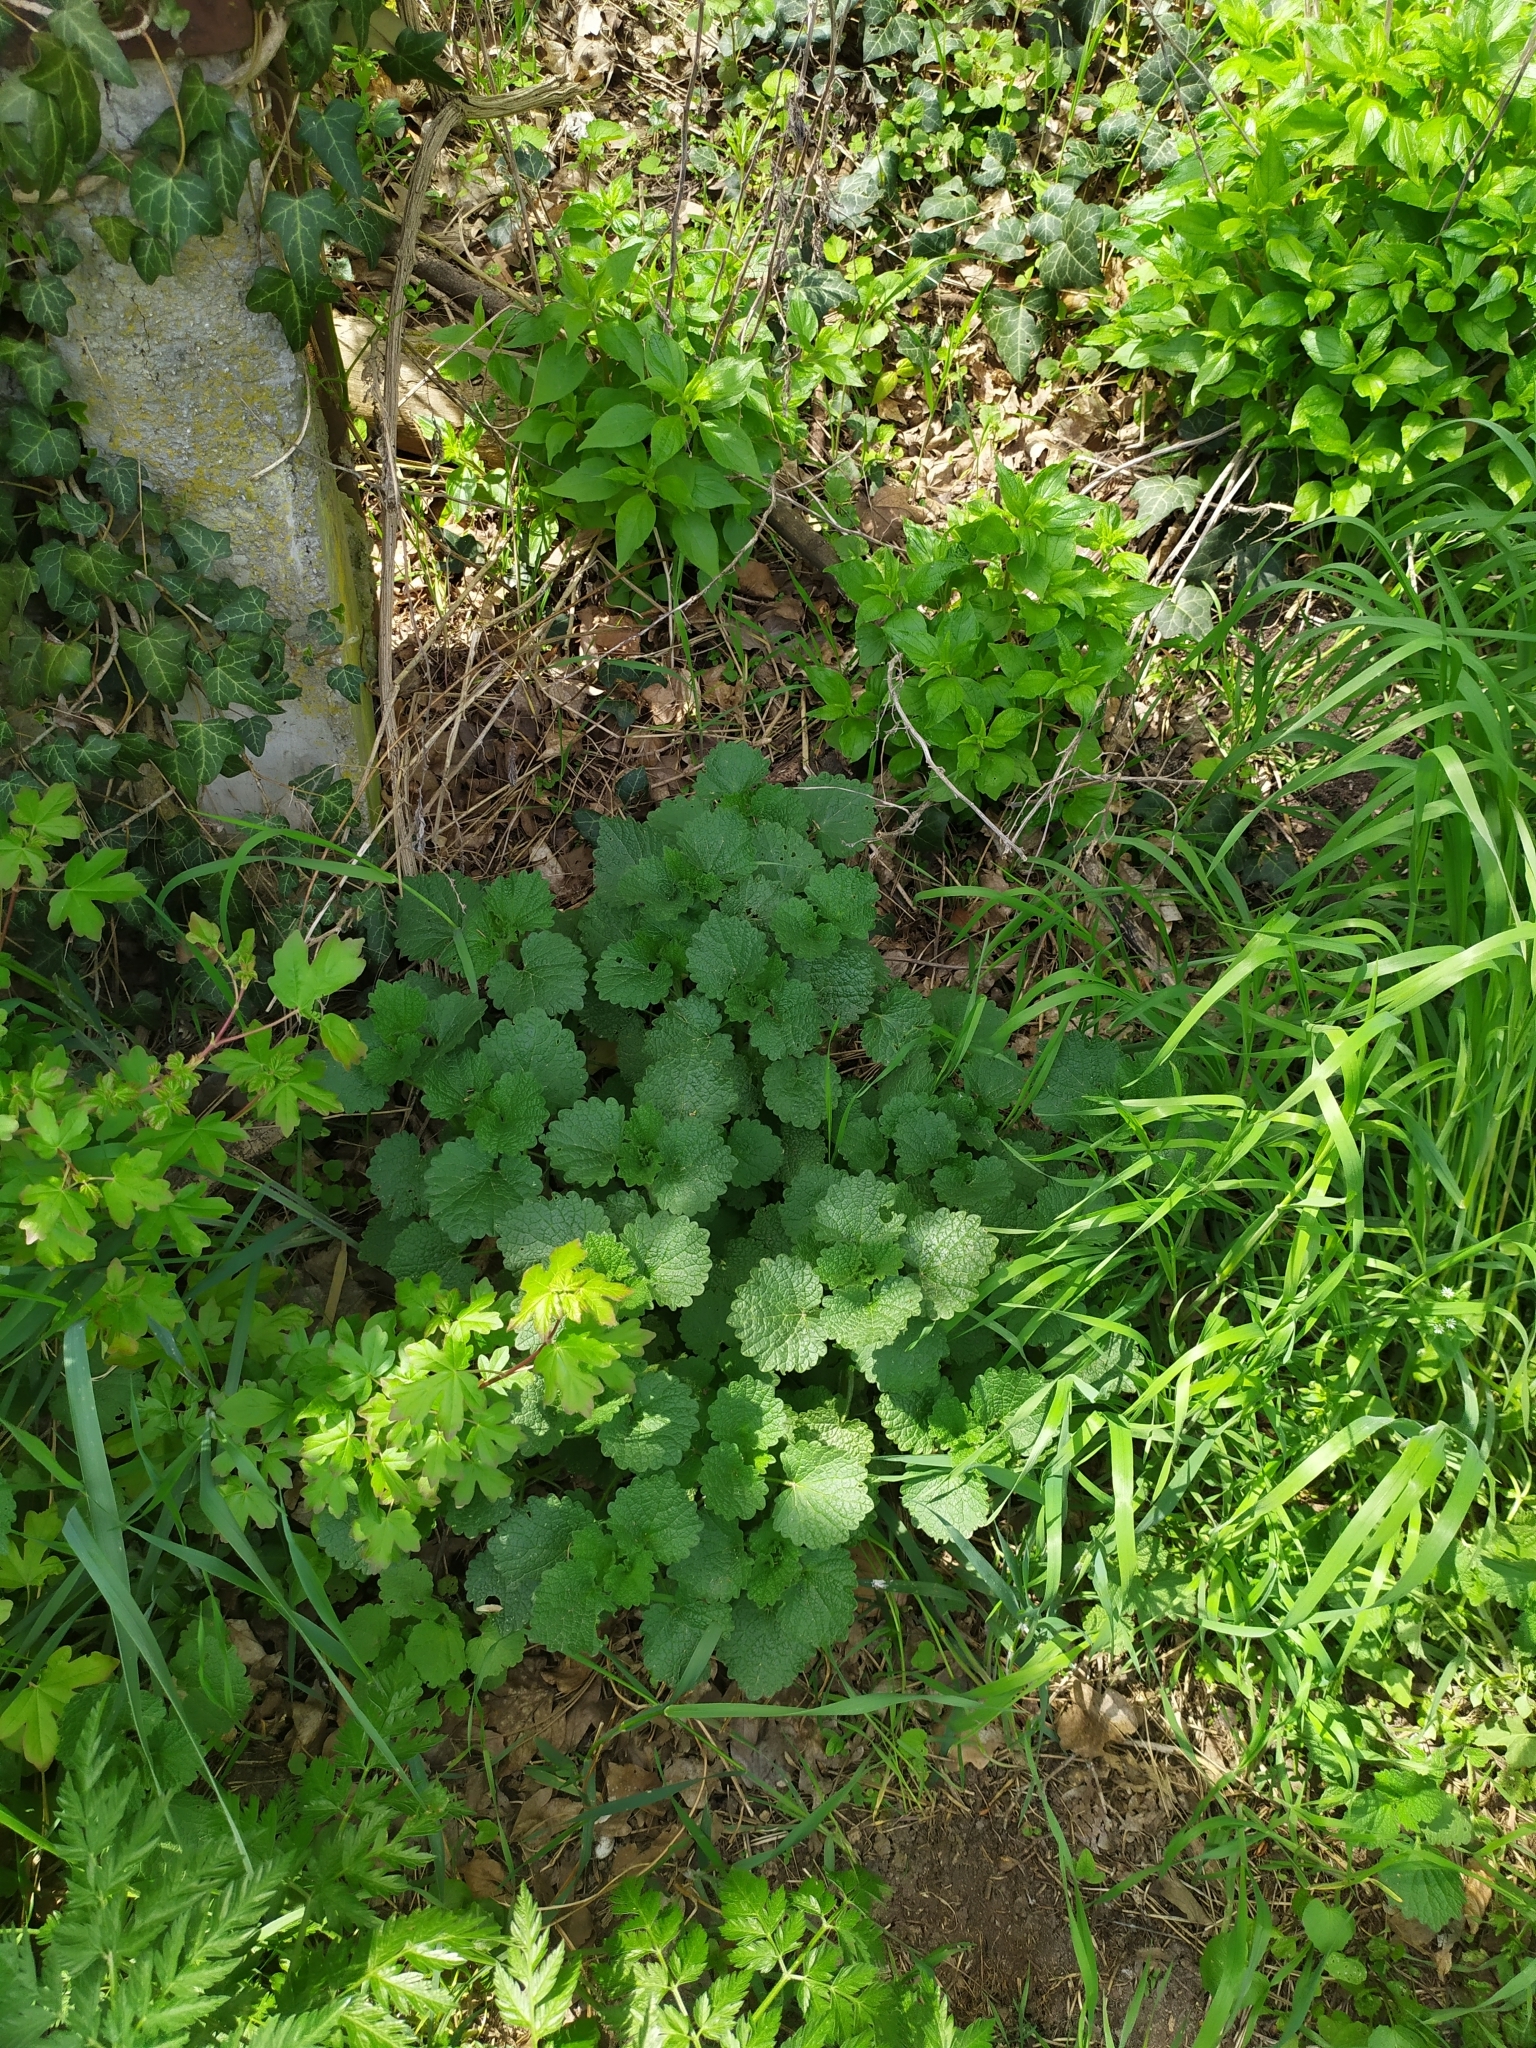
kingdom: Plantae
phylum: Tracheophyta
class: Magnoliopsida
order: Lamiales
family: Lamiaceae
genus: Ballota
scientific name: Ballota nigra
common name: Black horehound
